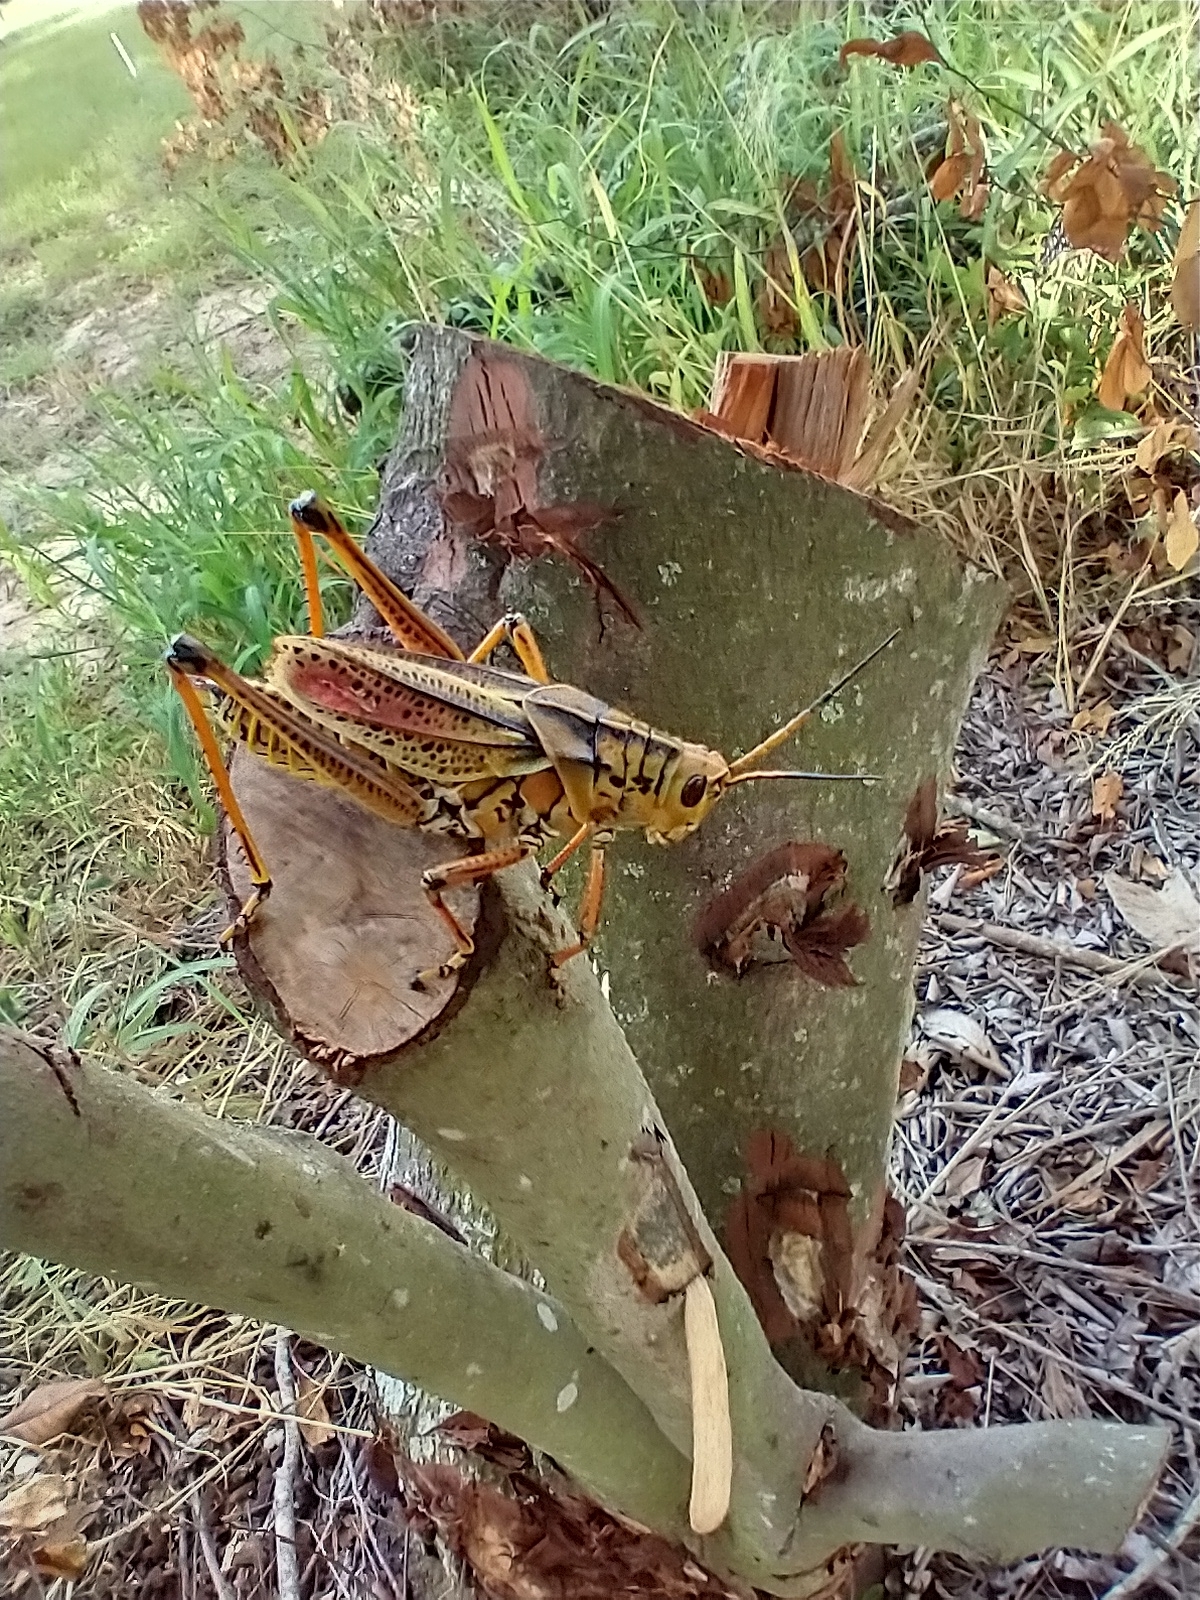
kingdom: Animalia
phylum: Arthropoda
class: Insecta
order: Orthoptera
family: Romaleidae
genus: Romalea
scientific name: Romalea microptera
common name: Eastern lubber grasshopper
